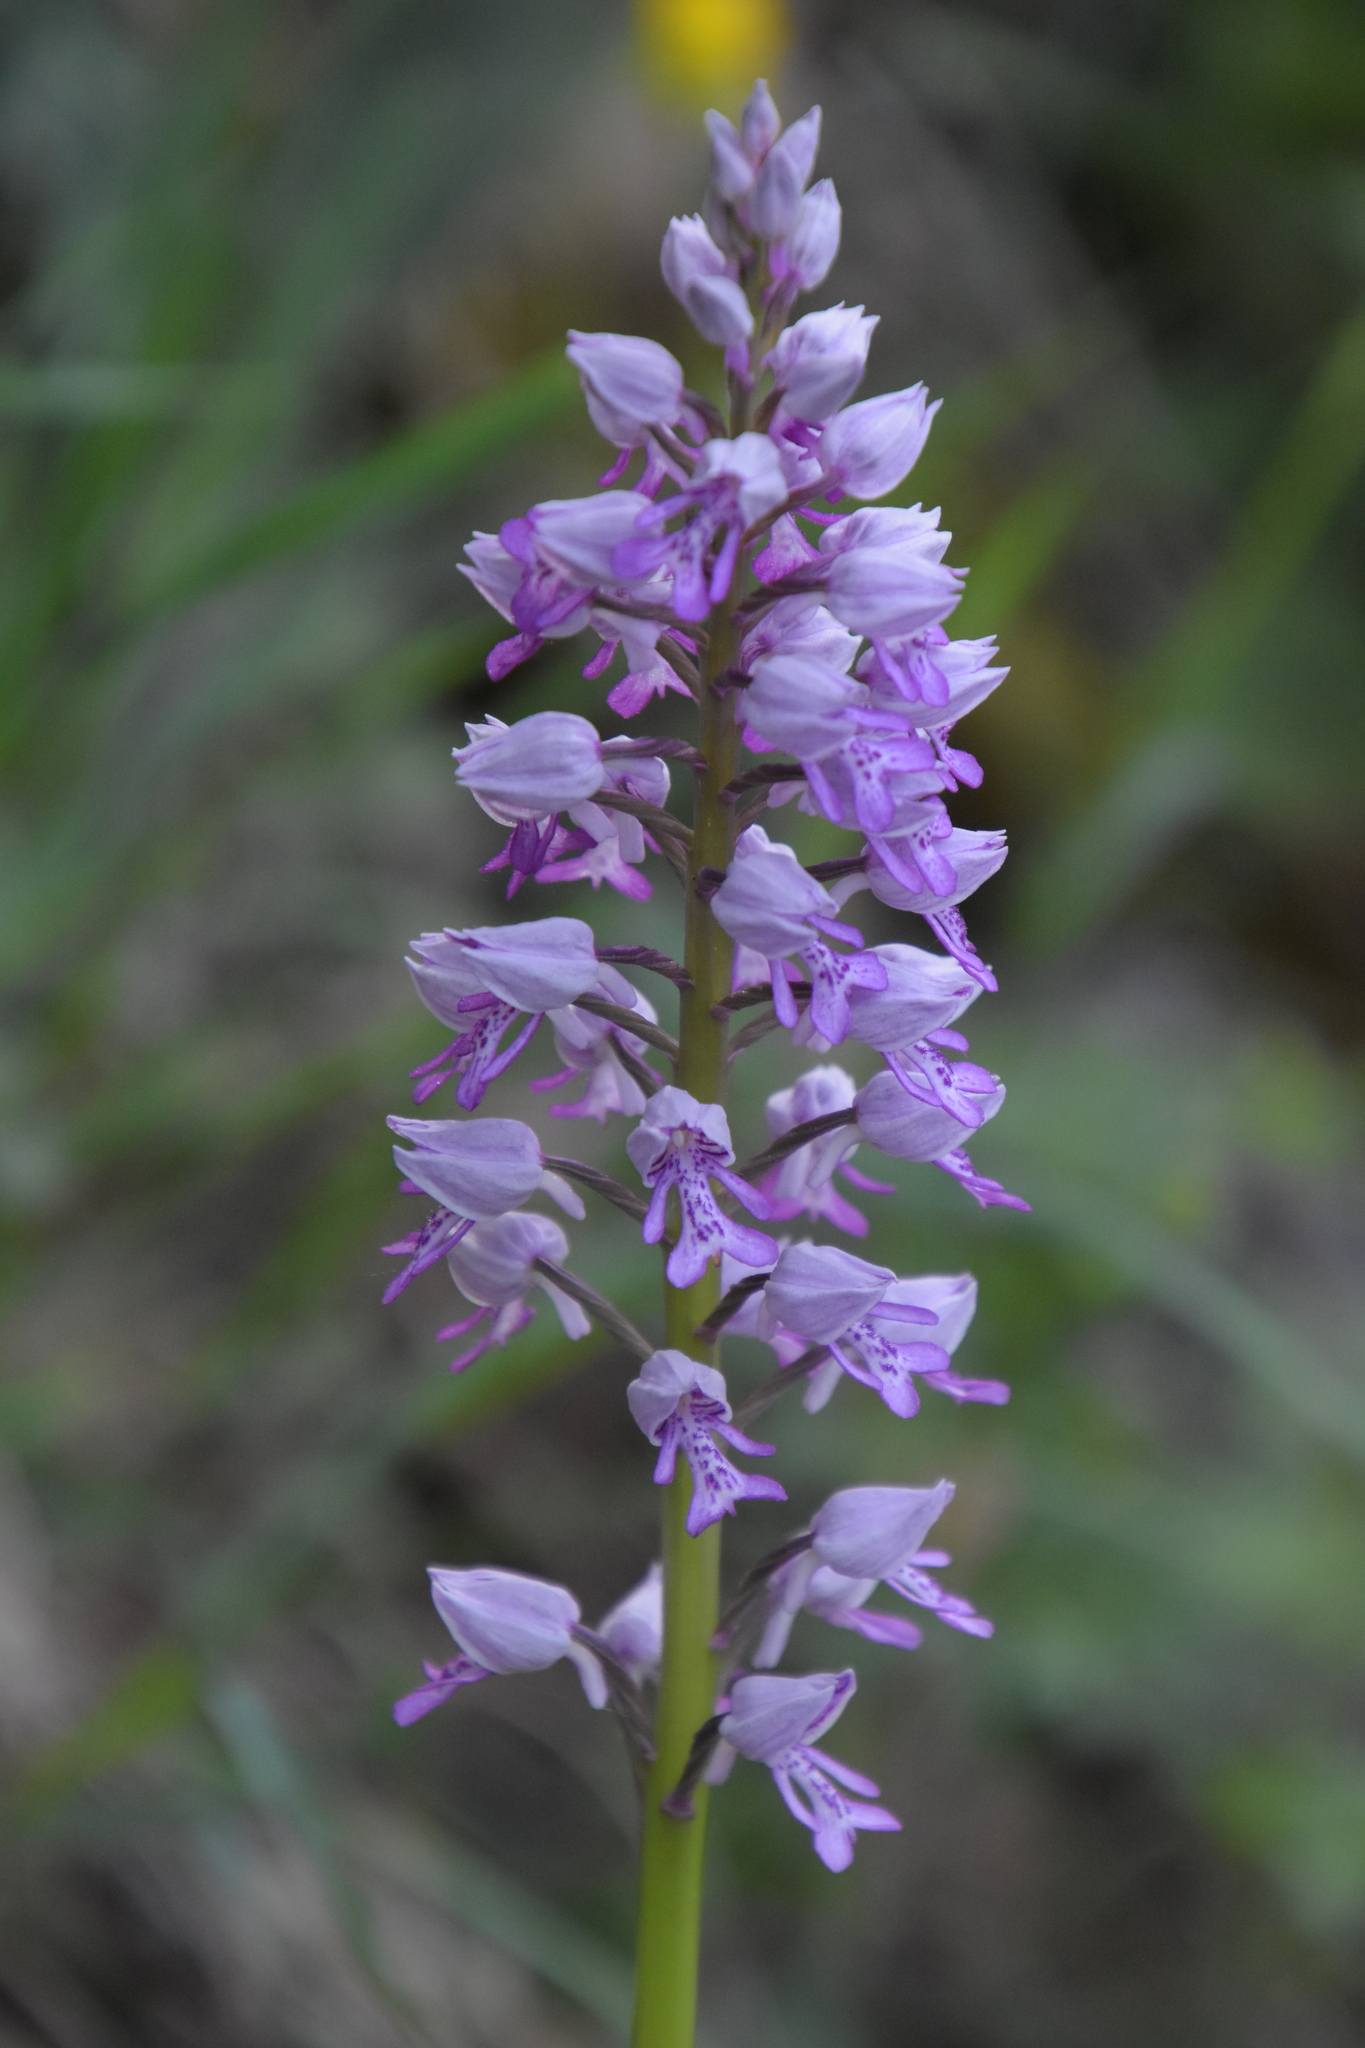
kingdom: Plantae
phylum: Tracheophyta
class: Liliopsida
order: Asparagales
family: Orchidaceae
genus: Orchis
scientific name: Orchis militaris
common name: Military orchid
